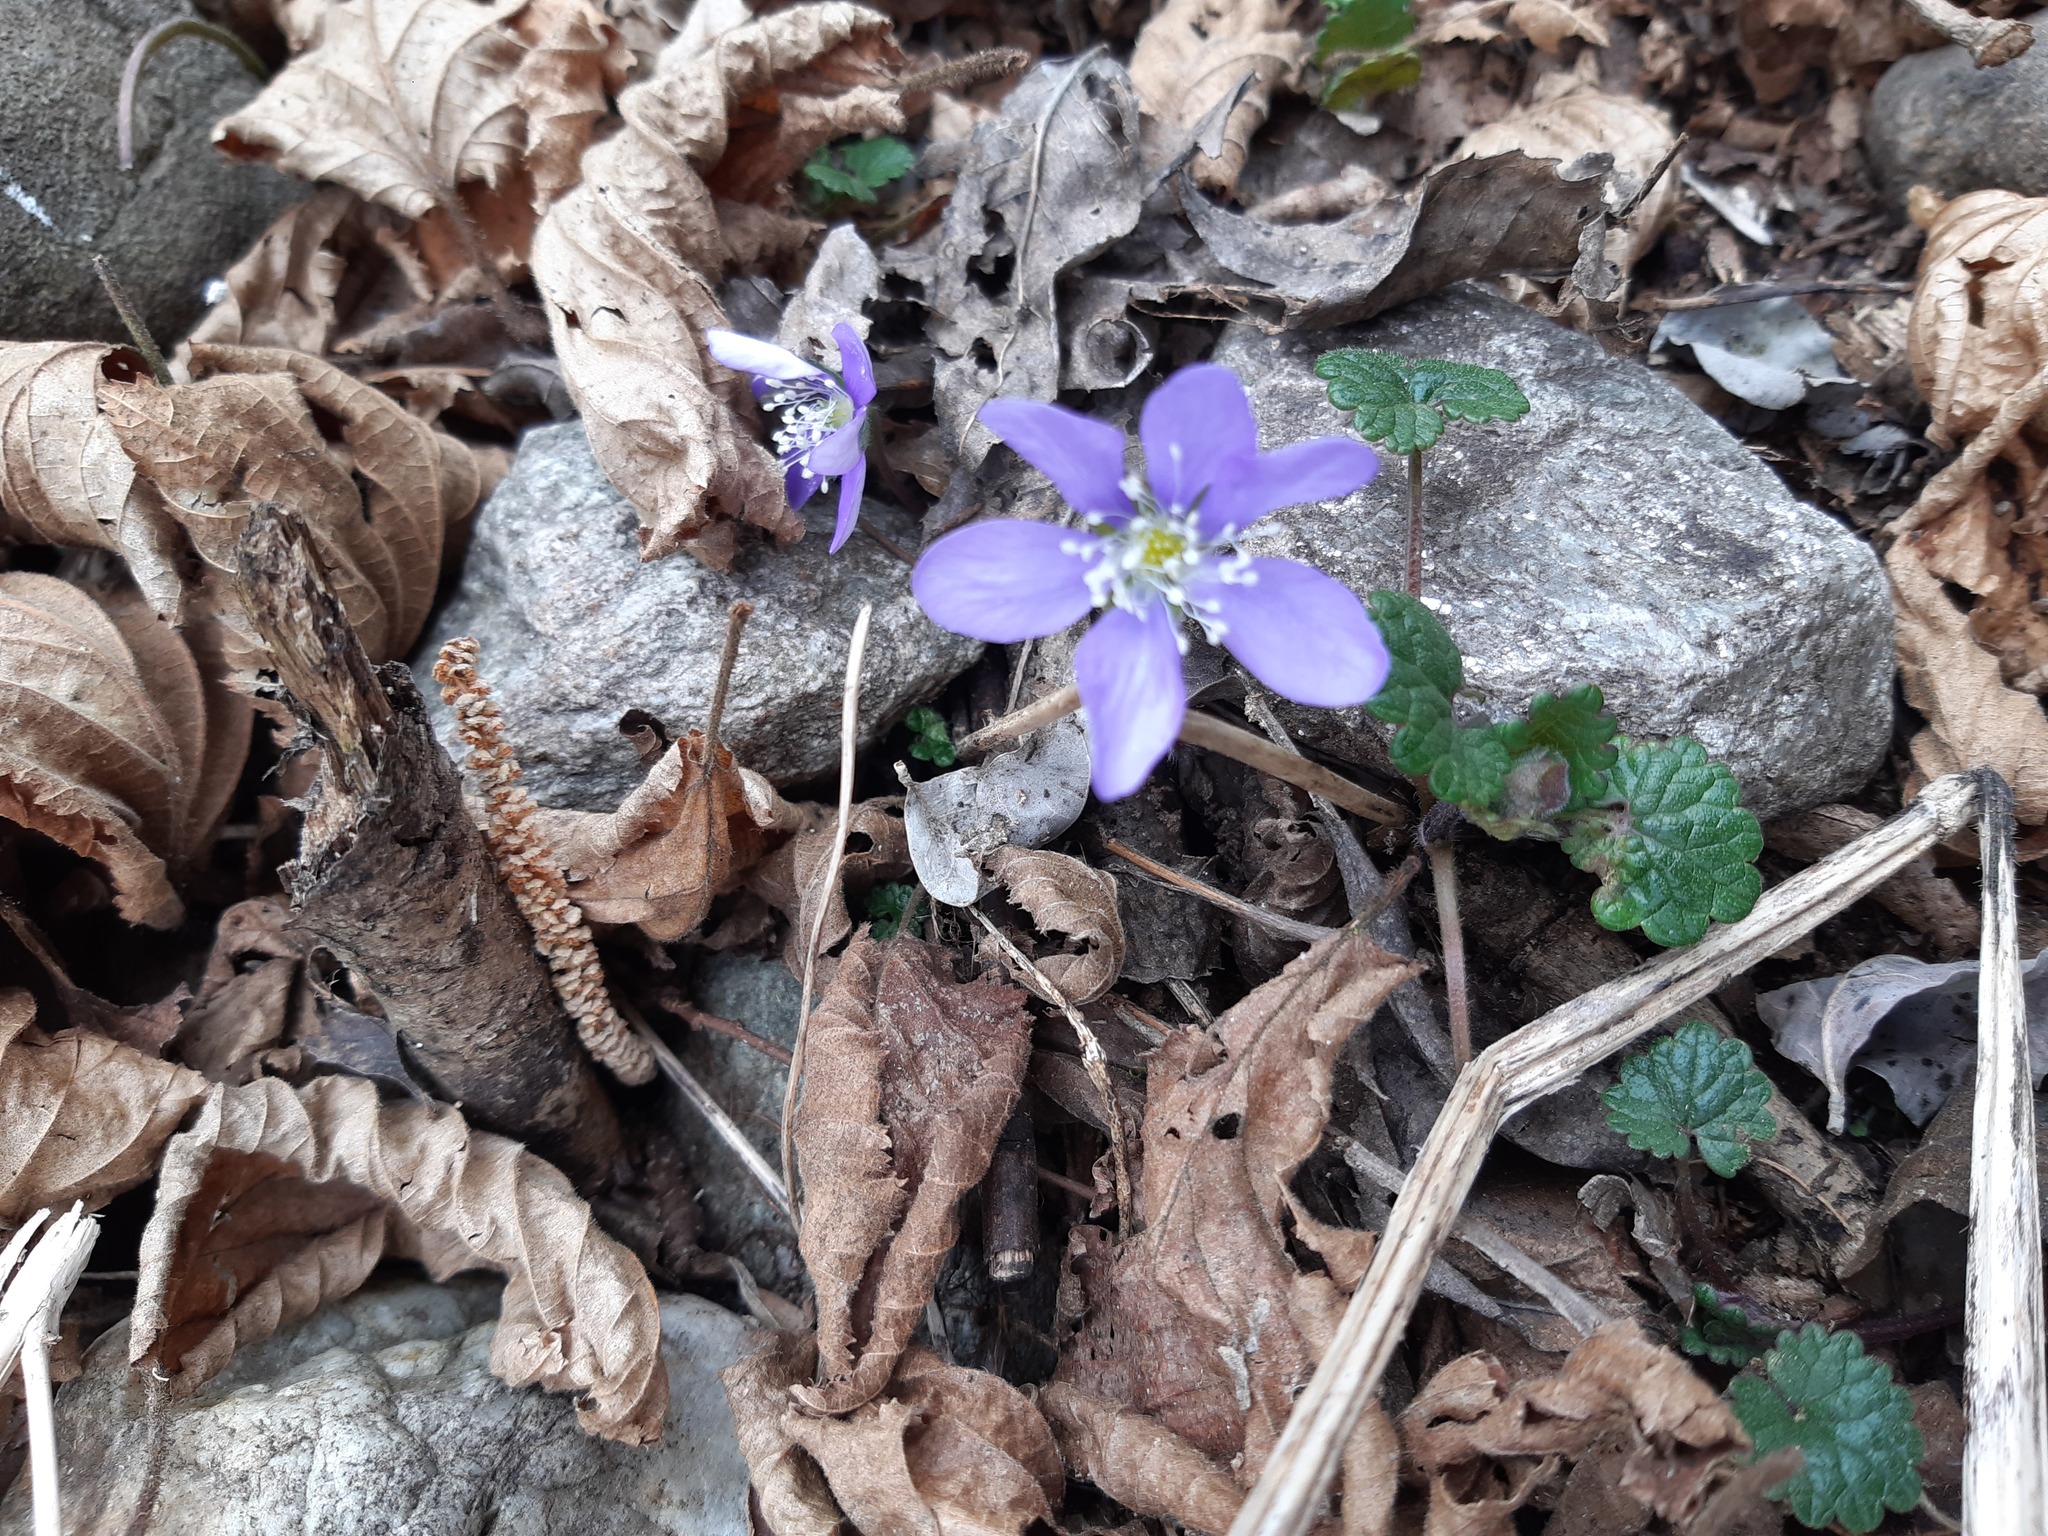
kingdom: Plantae
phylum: Tracheophyta
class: Magnoliopsida
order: Ranunculales
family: Ranunculaceae
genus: Hepatica
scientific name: Hepatica nobilis
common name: Liverleaf
